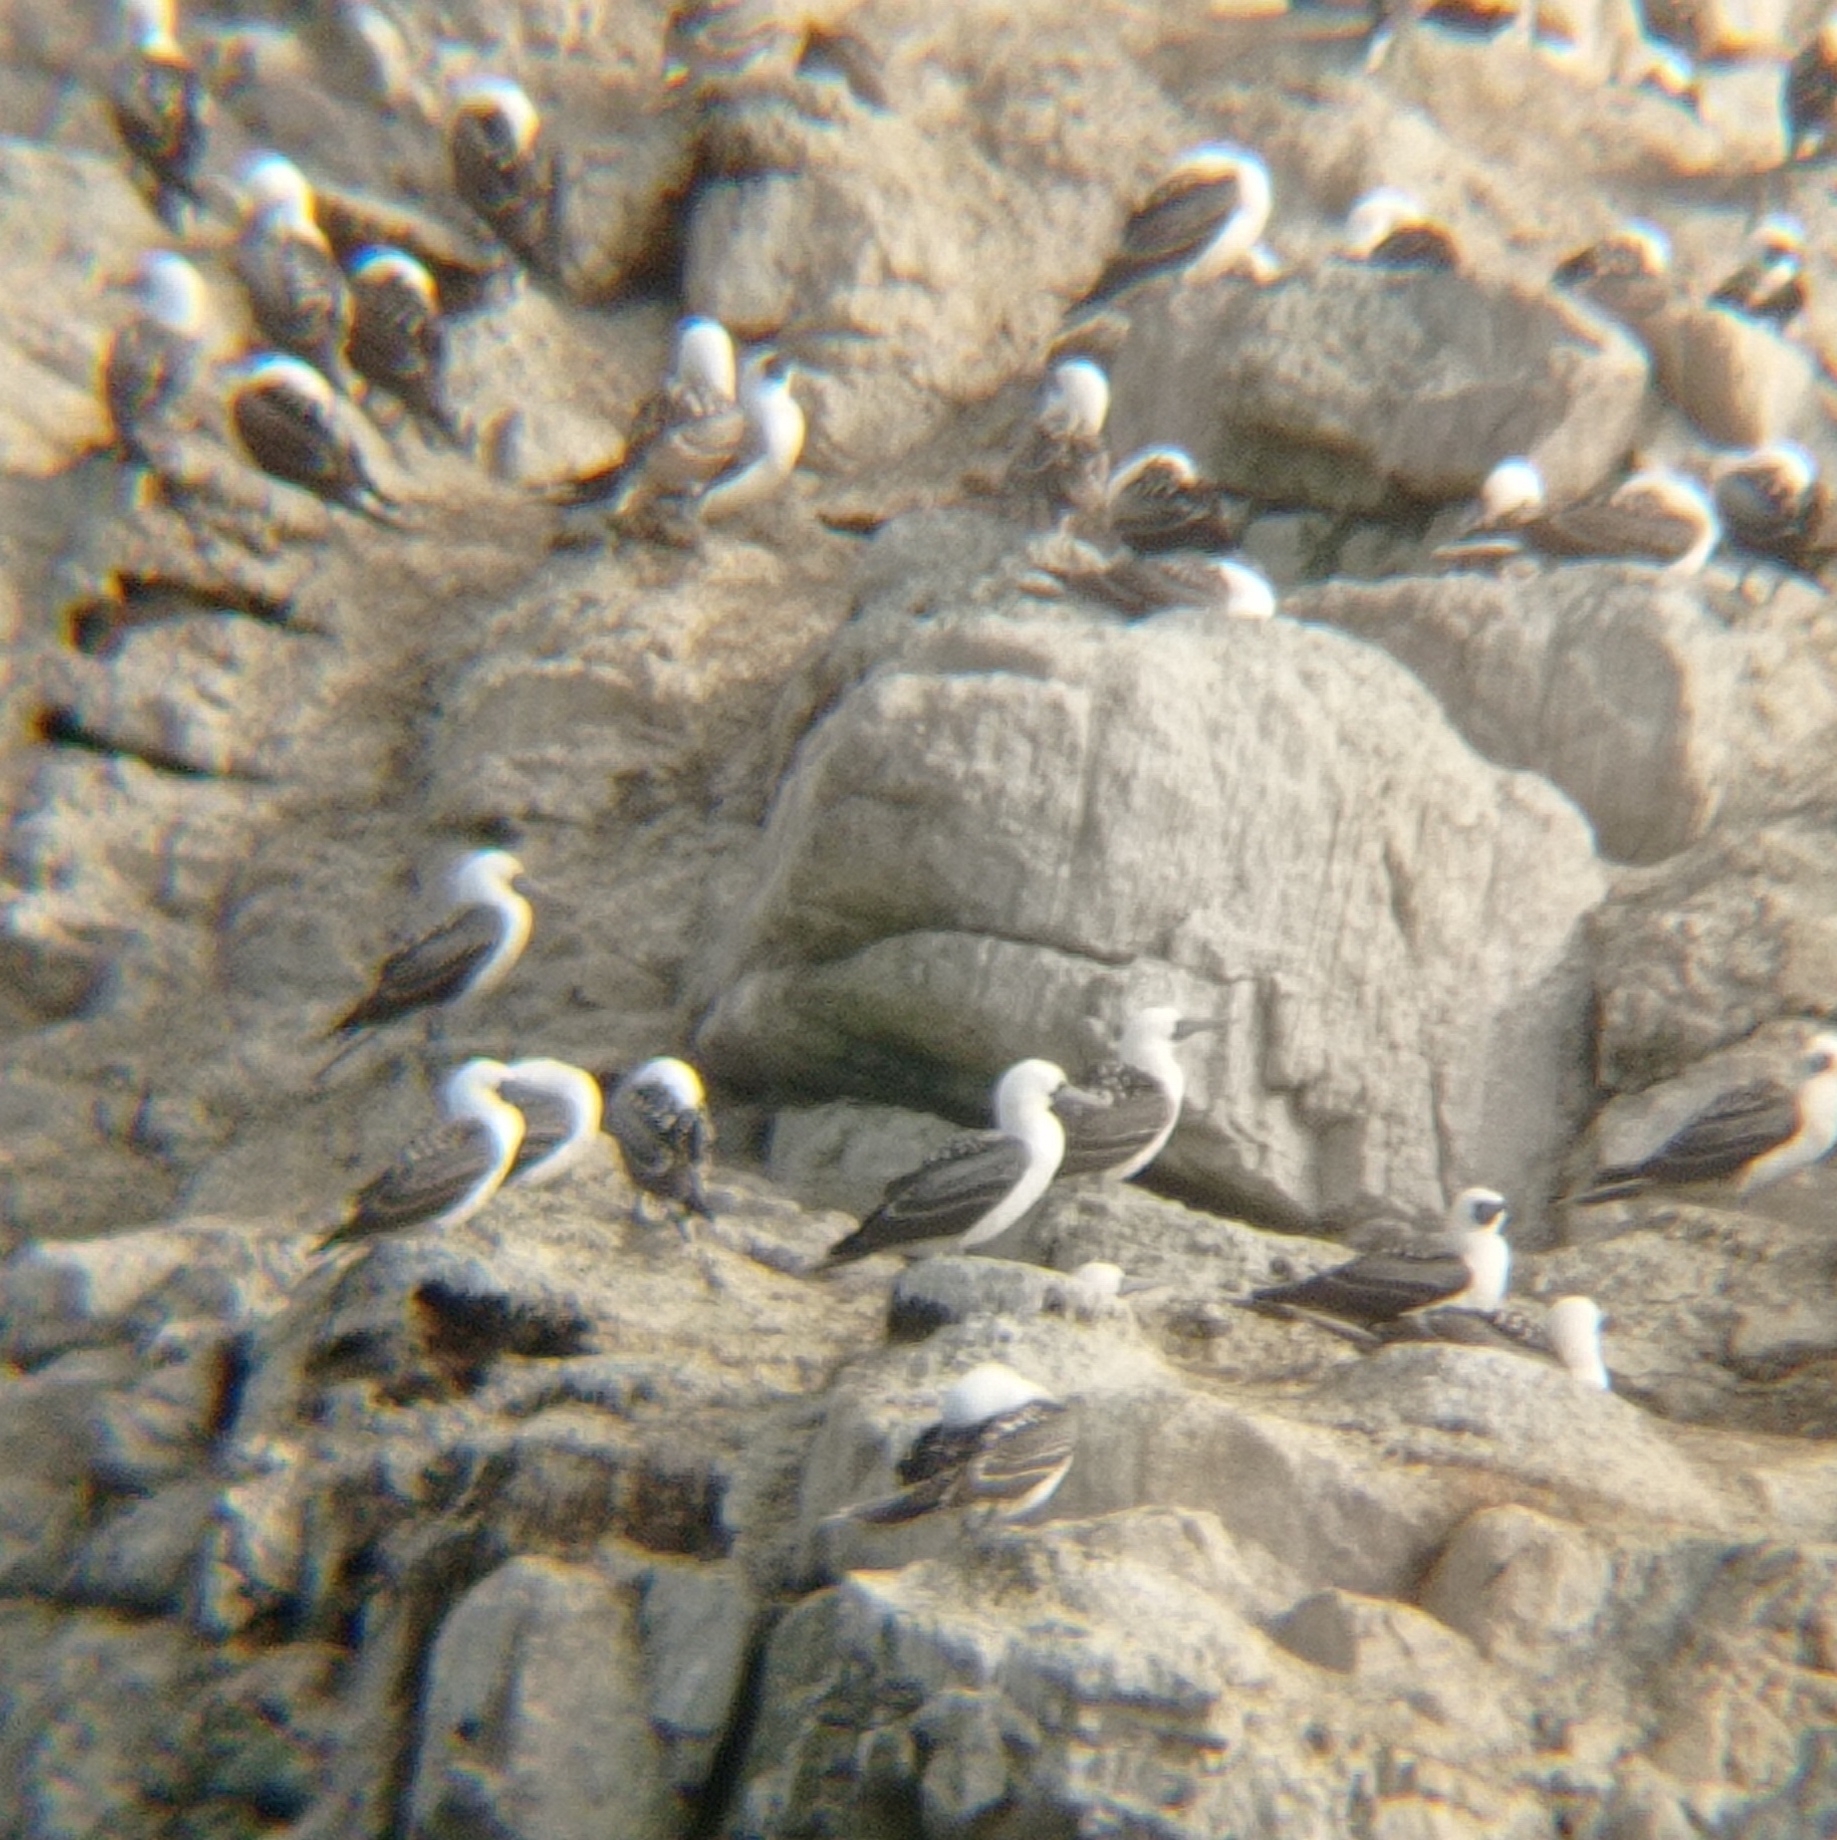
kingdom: Animalia
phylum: Chordata
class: Aves
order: Suliformes
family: Sulidae
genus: Sula
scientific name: Sula variegata
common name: Peruvian booby
